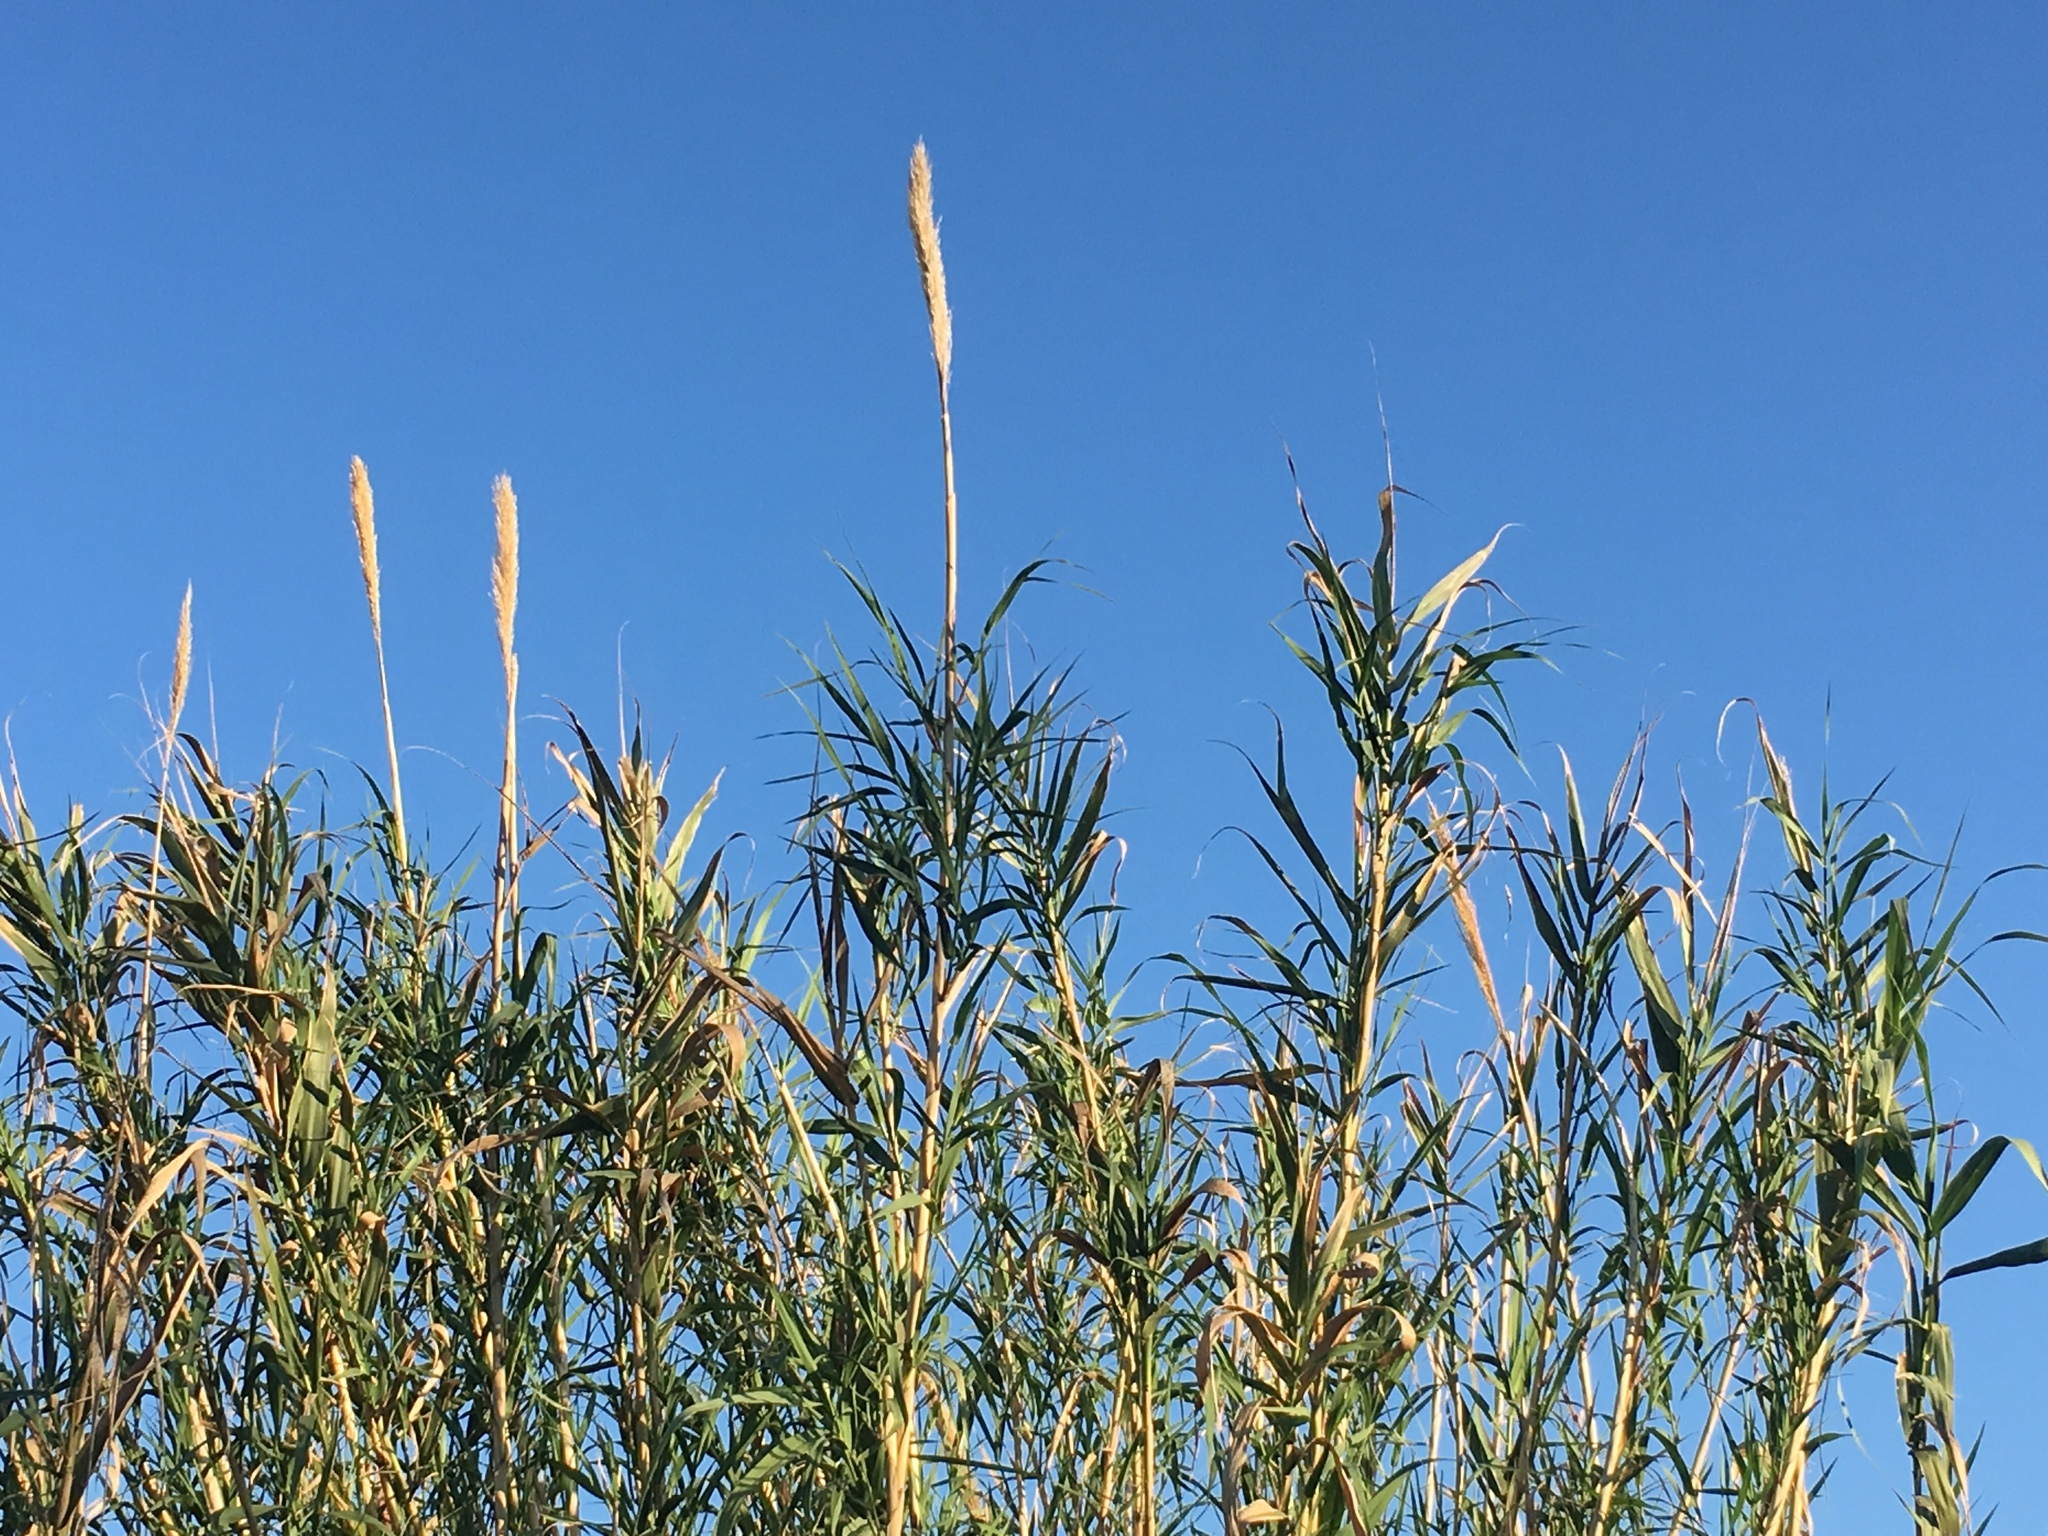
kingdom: Plantae
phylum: Tracheophyta
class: Liliopsida
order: Poales
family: Poaceae
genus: Arundo
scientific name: Arundo donax
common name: Giant reed
